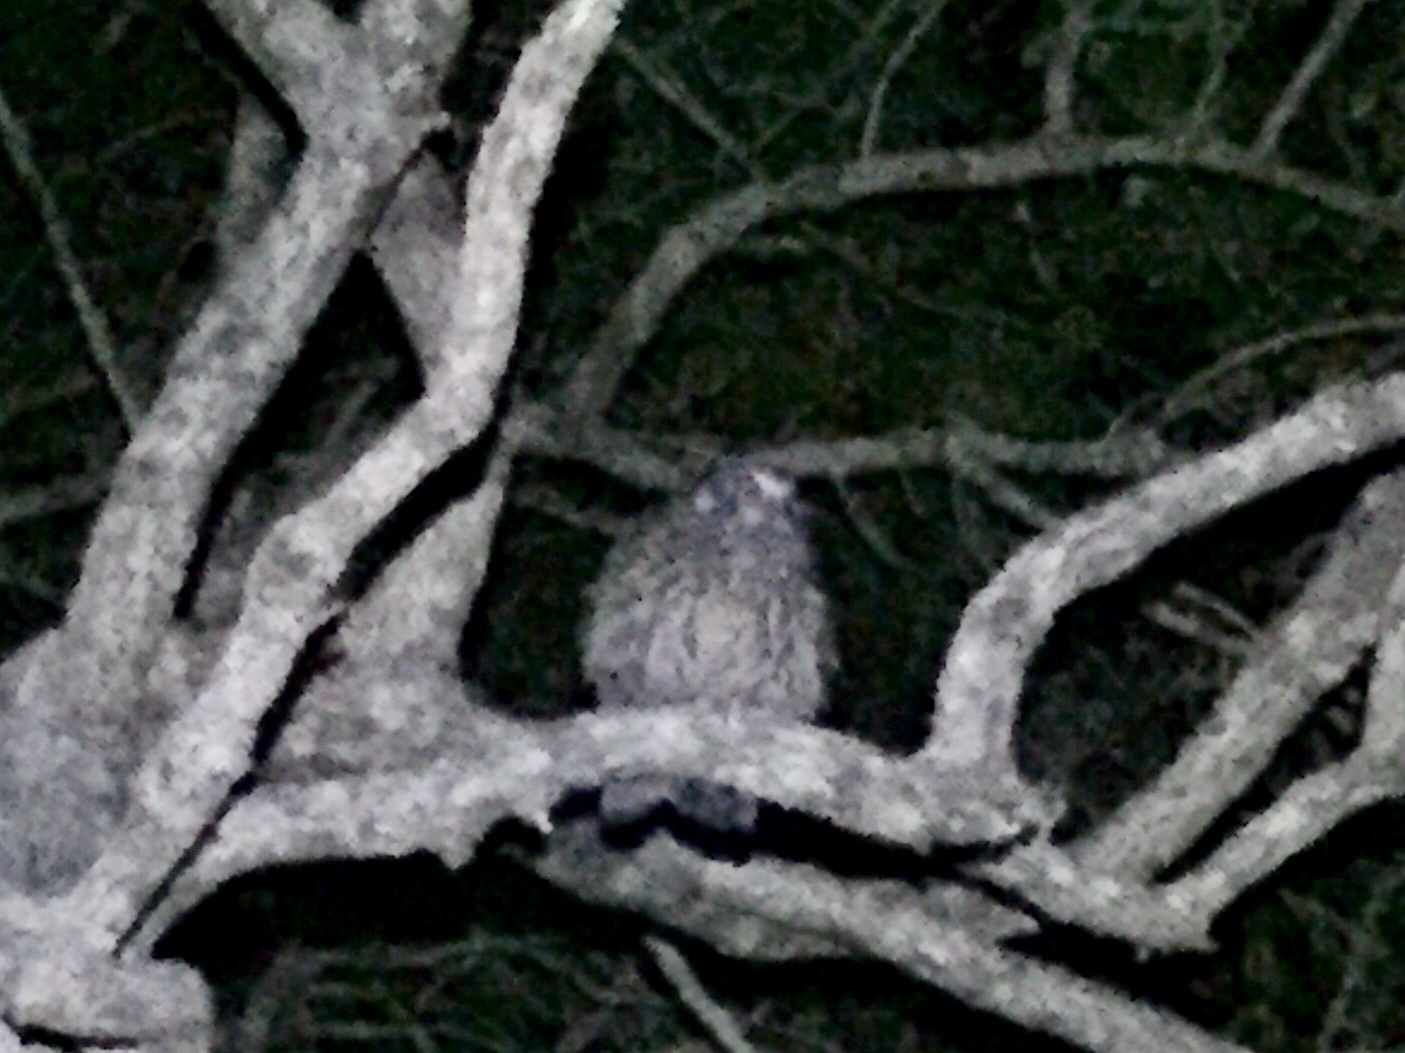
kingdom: Animalia
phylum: Chordata
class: Aves
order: Strigiformes
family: Strigidae
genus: Ninox
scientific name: Ninox novaeseelandiae
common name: Morepork
